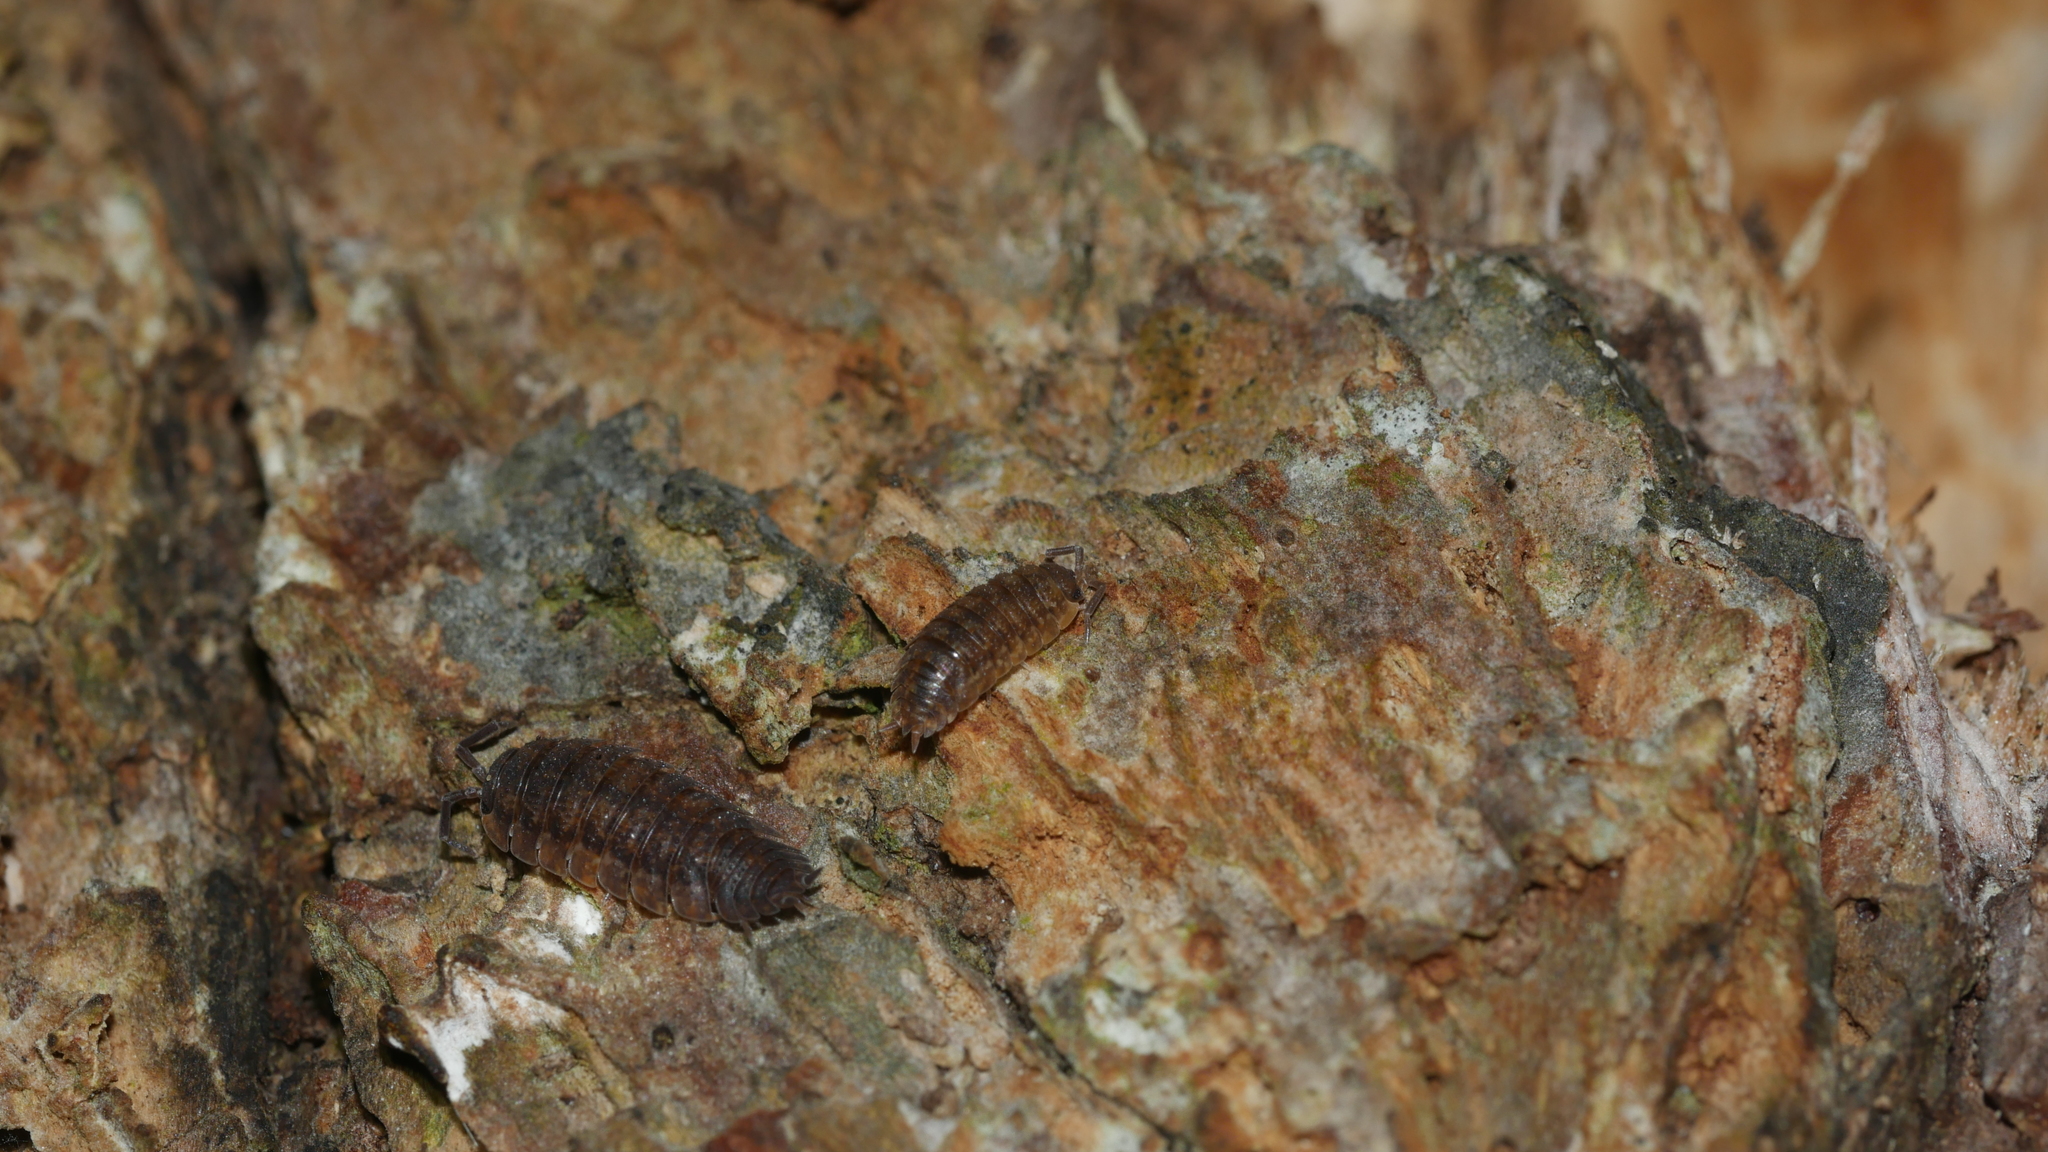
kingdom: Animalia
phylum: Arthropoda
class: Malacostraca
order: Isopoda
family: Porcellionidae
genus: Porcellio
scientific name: Porcellio scaber
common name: Common rough woodlouse
